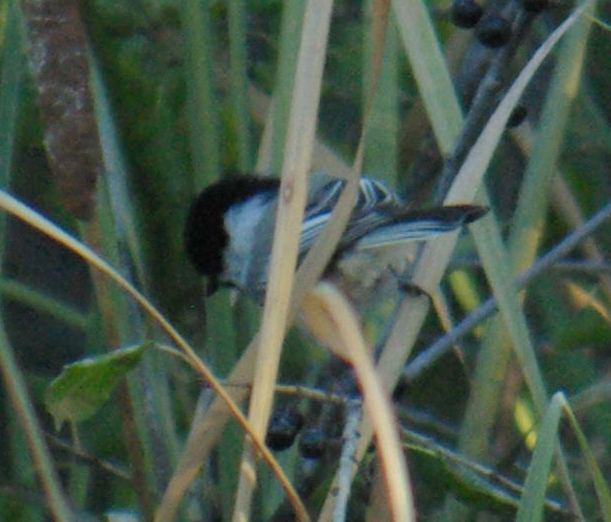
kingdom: Animalia
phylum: Chordata
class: Aves
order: Passeriformes
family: Paridae
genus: Poecile
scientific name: Poecile atricapillus
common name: Black-capped chickadee
